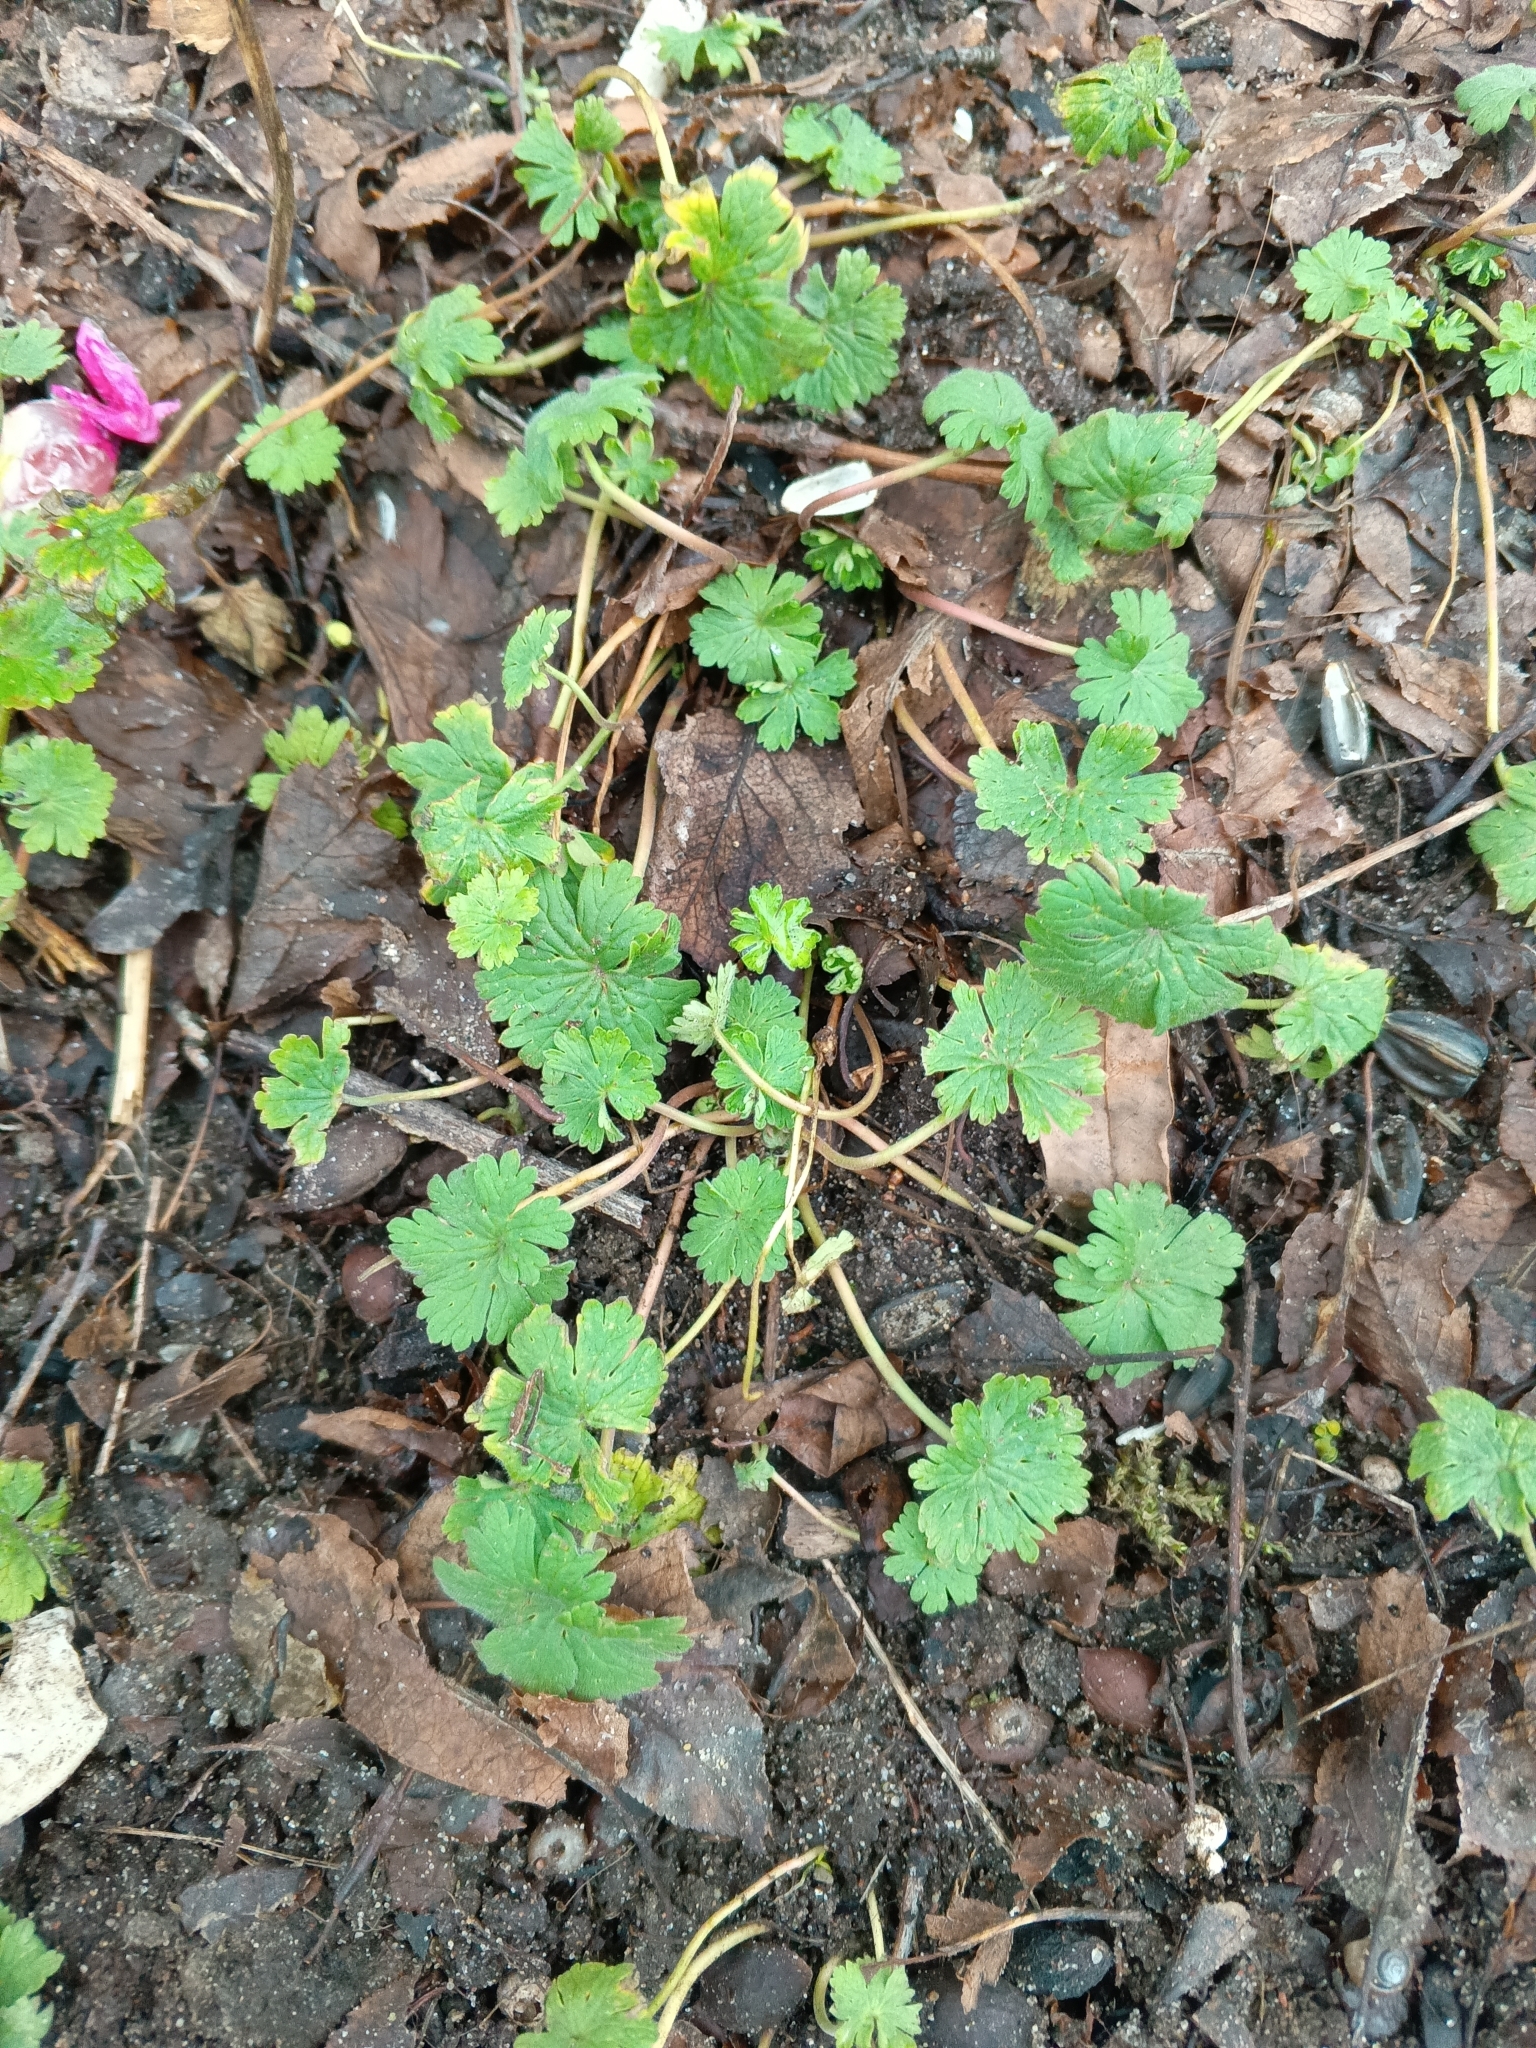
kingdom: Plantae
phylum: Tracheophyta
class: Magnoliopsida
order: Geraniales
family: Geraniaceae
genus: Geranium
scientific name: Geranium pusillum
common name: Small geranium
